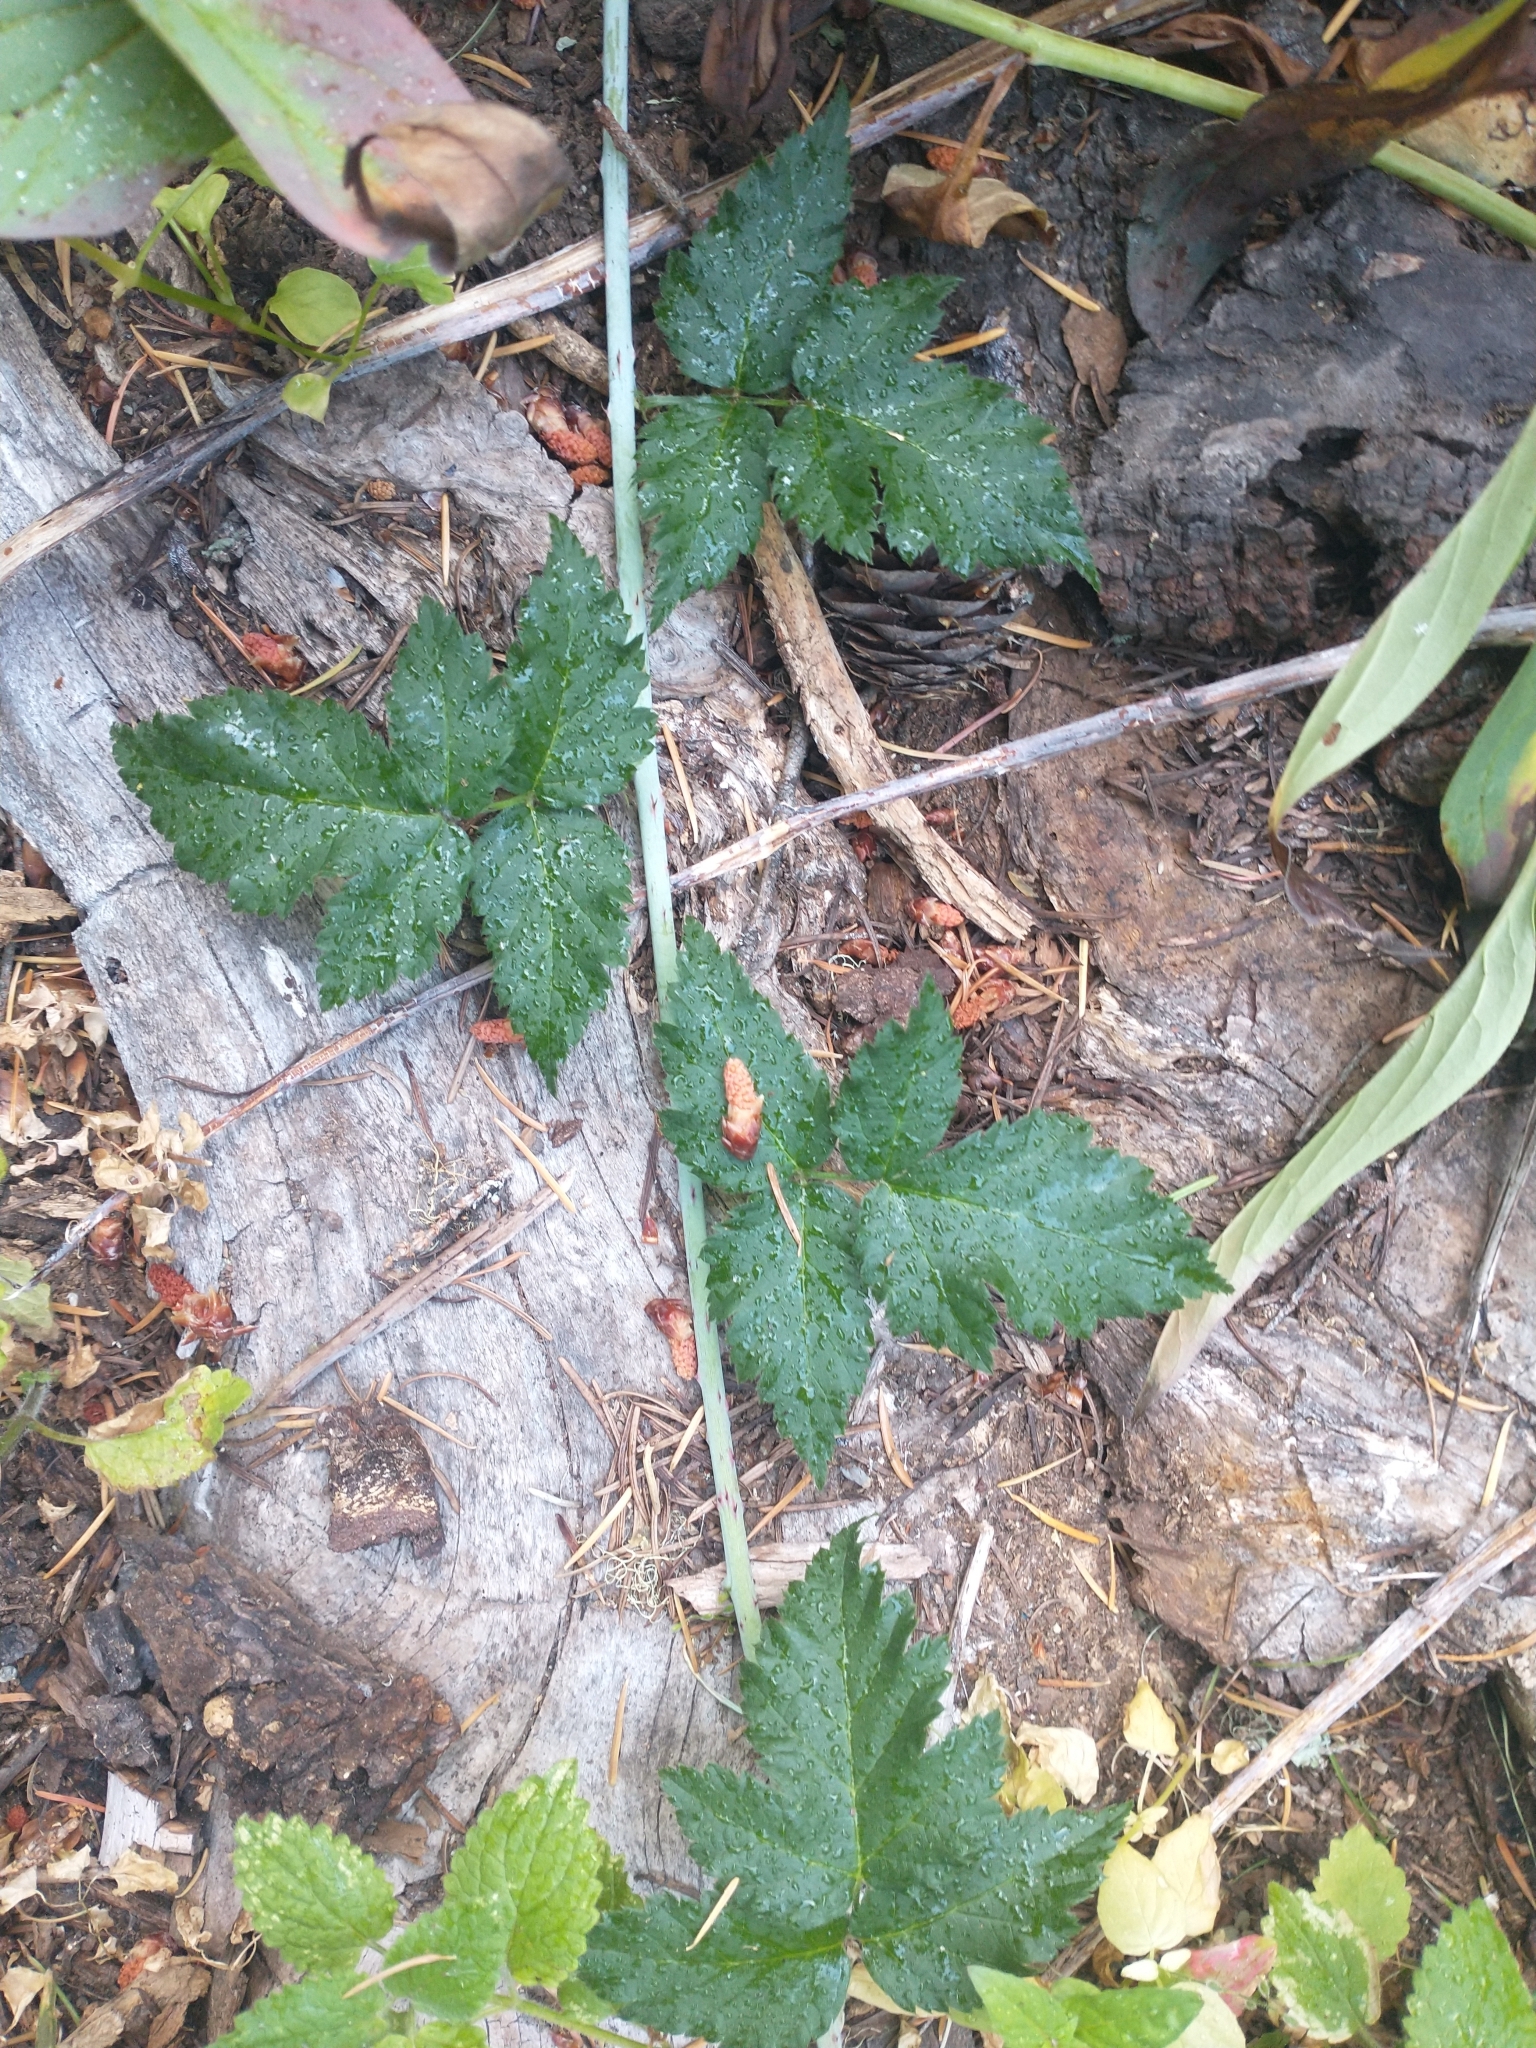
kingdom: Plantae
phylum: Tracheophyta
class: Magnoliopsida
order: Rosales
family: Rosaceae
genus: Rubus
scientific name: Rubus ursinus
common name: Pacific blackberry
